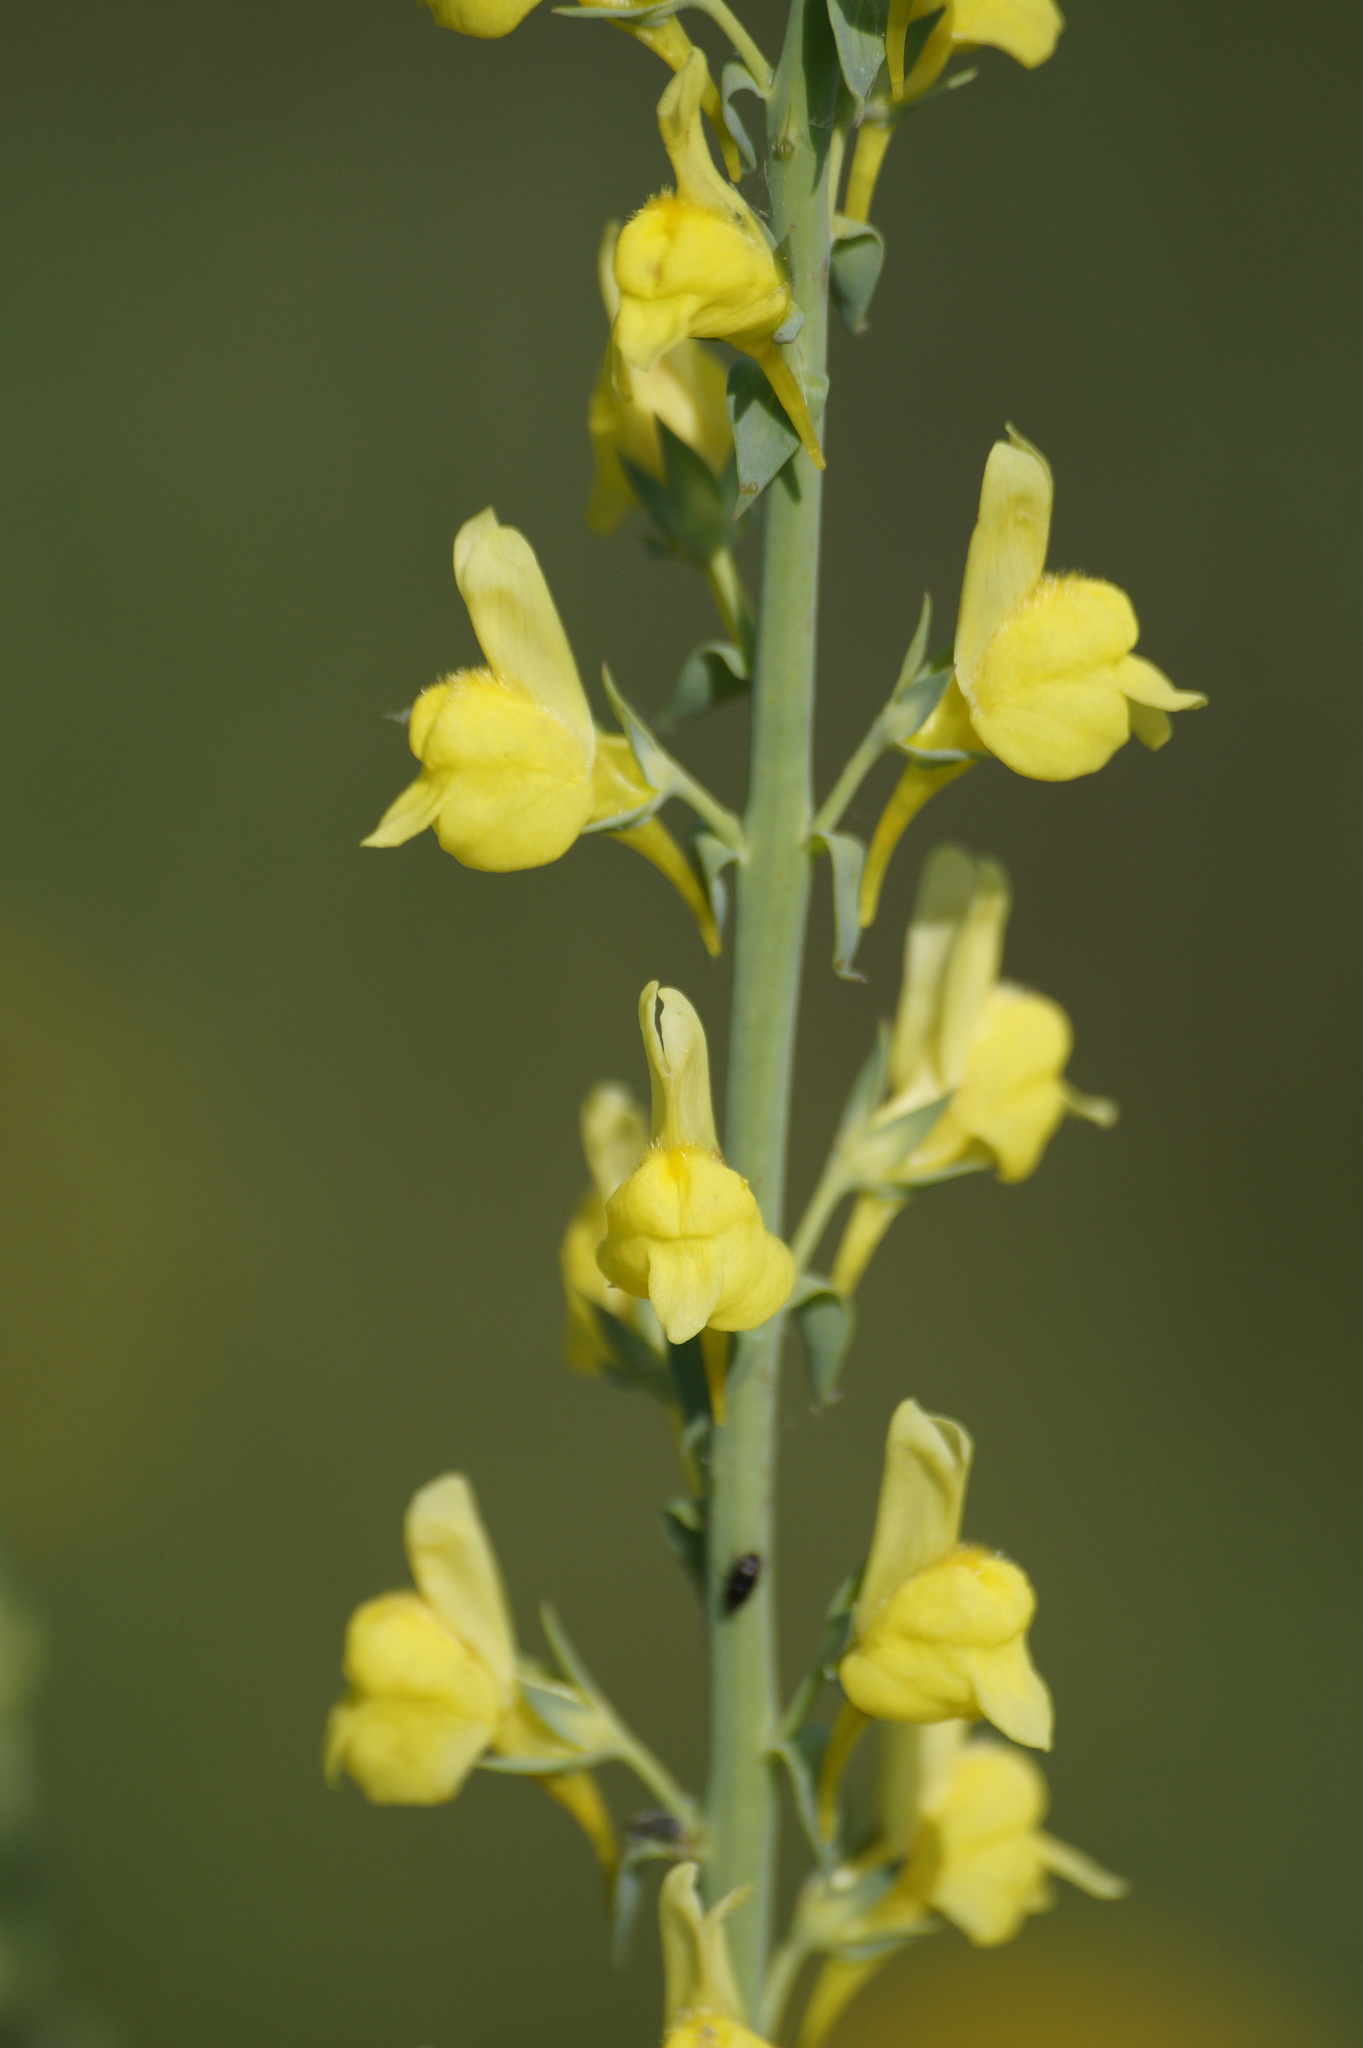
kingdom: Plantae
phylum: Tracheophyta
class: Magnoliopsida
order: Lamiales
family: Plantaginaceae
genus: Linaria
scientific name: Linaria genistifolia
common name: Broomleaf toadflax
